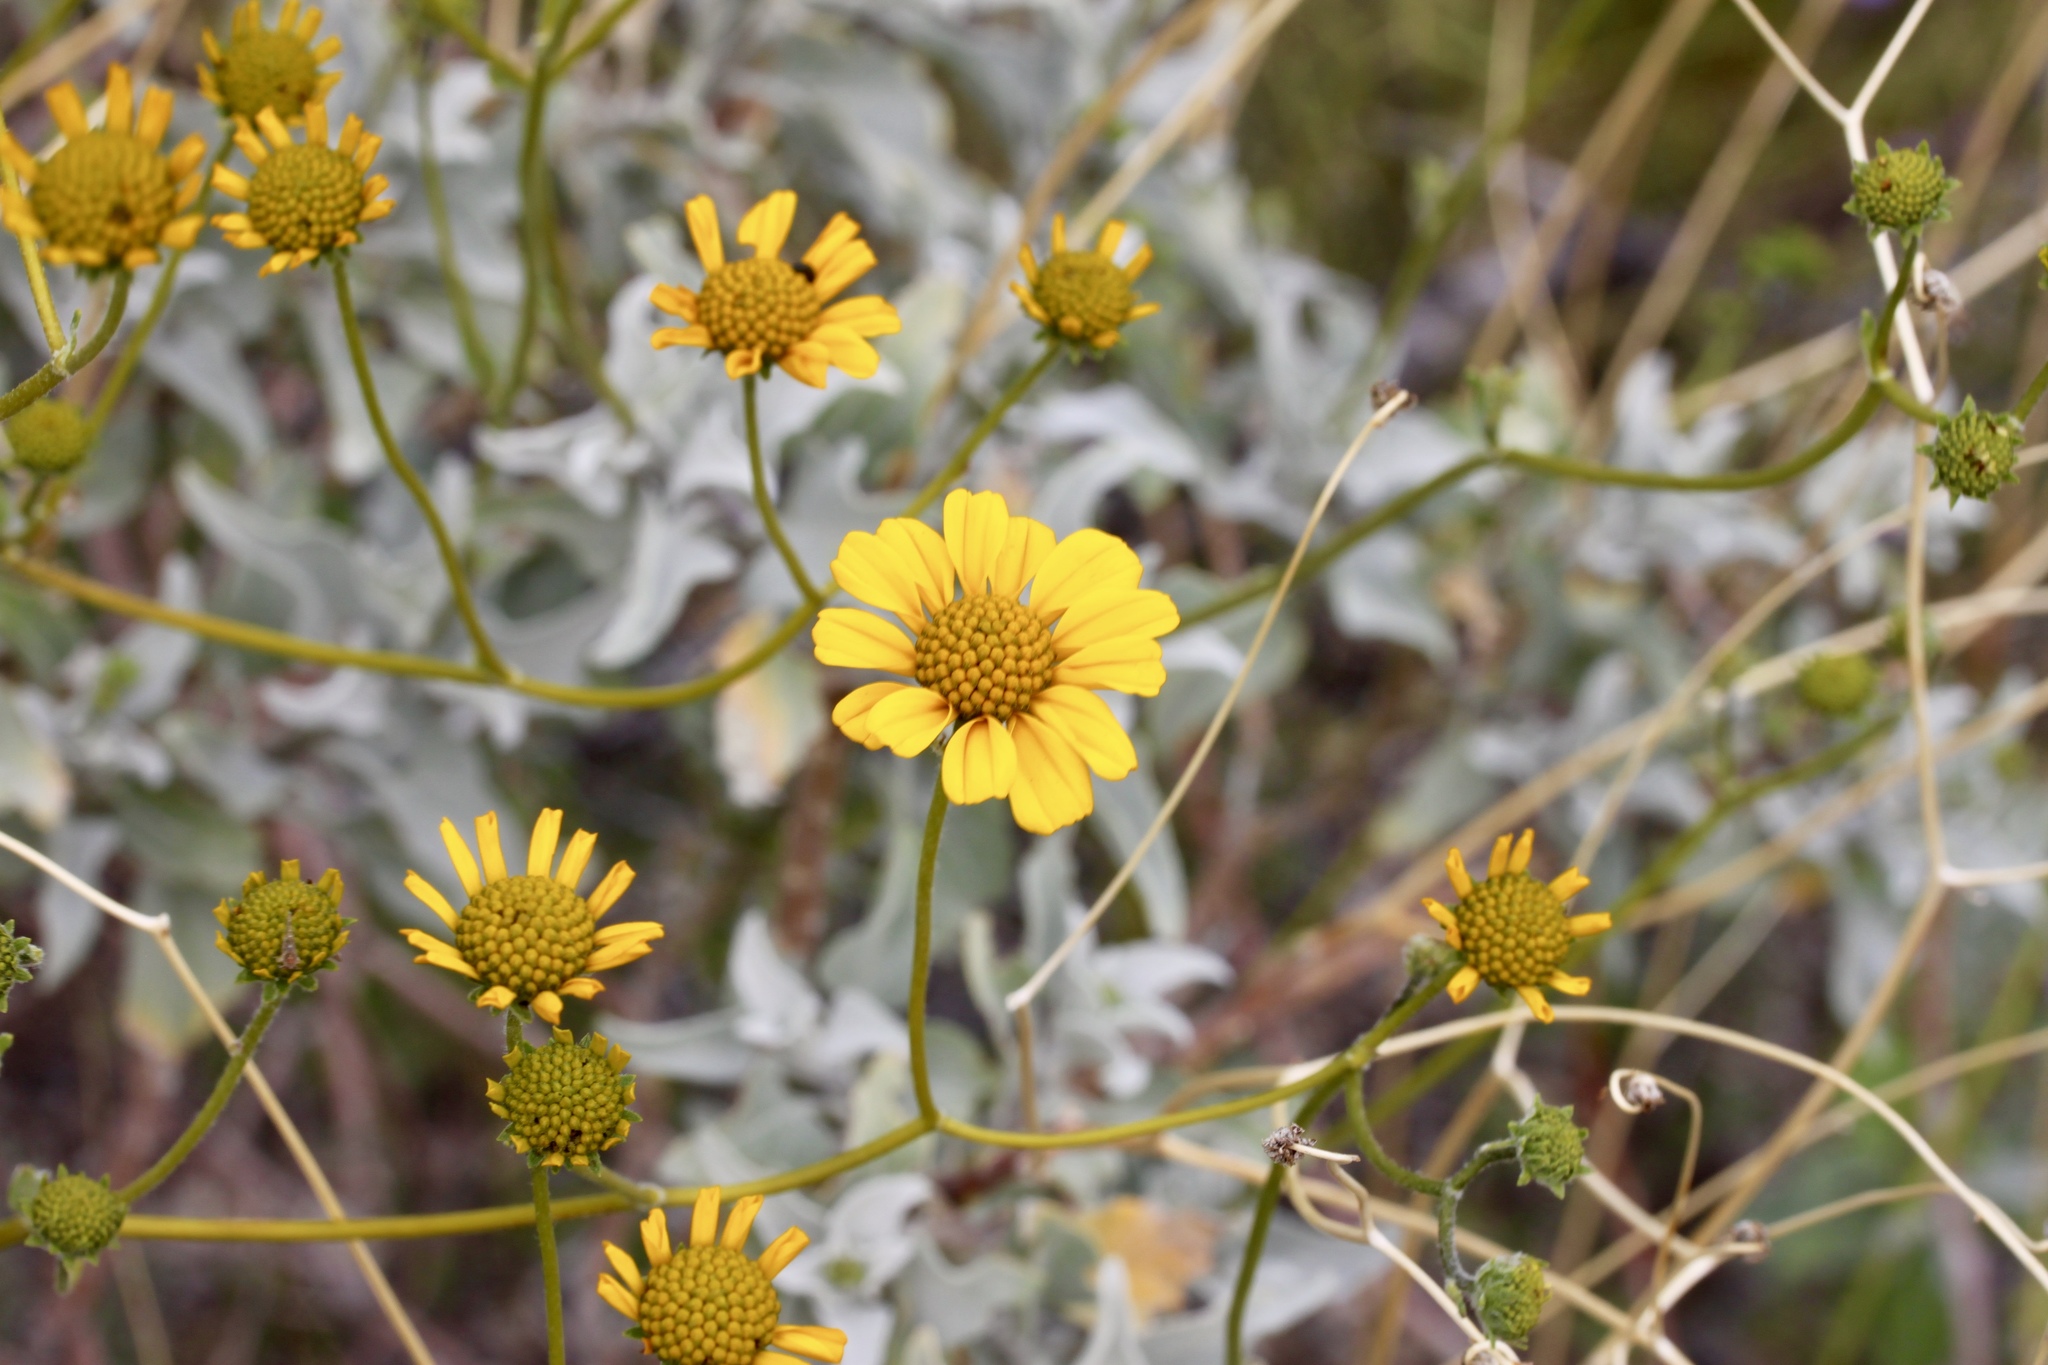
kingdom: Plantae
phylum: Tracheophyta
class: Magnoliopsida
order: Asterales
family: Asteraceae
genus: Encelia
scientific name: Encelia farinosa
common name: Brittlebush
